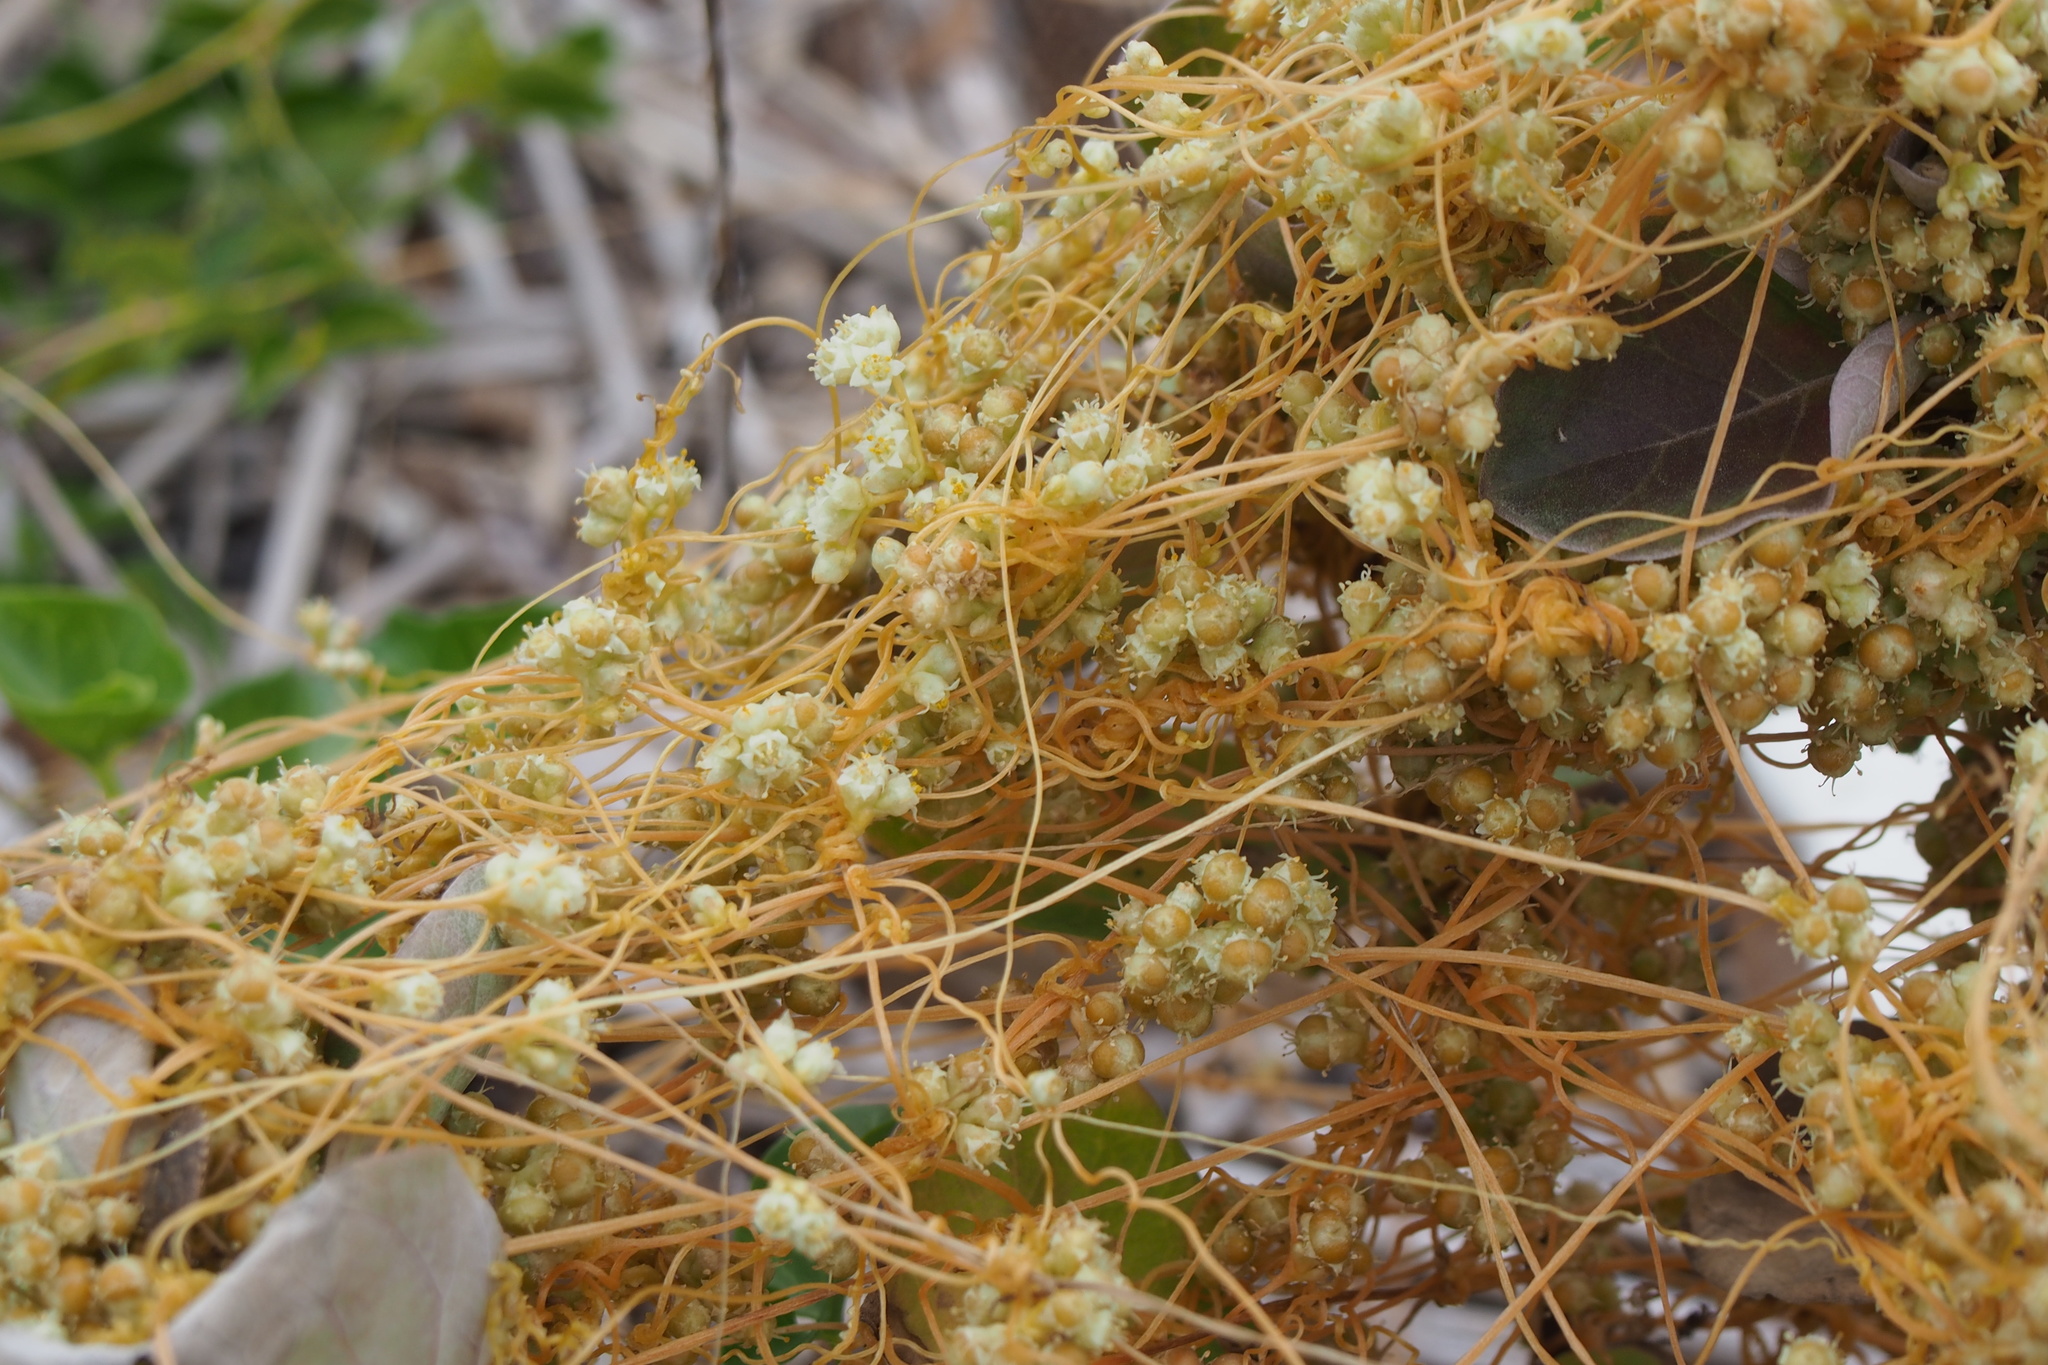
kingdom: Plantae
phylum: Tracheophyta
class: Magnoliopsida
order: Solanales
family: Convolvulaceae
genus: Cuscuta
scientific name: Cuscuta campestris
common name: Yellow dodder
